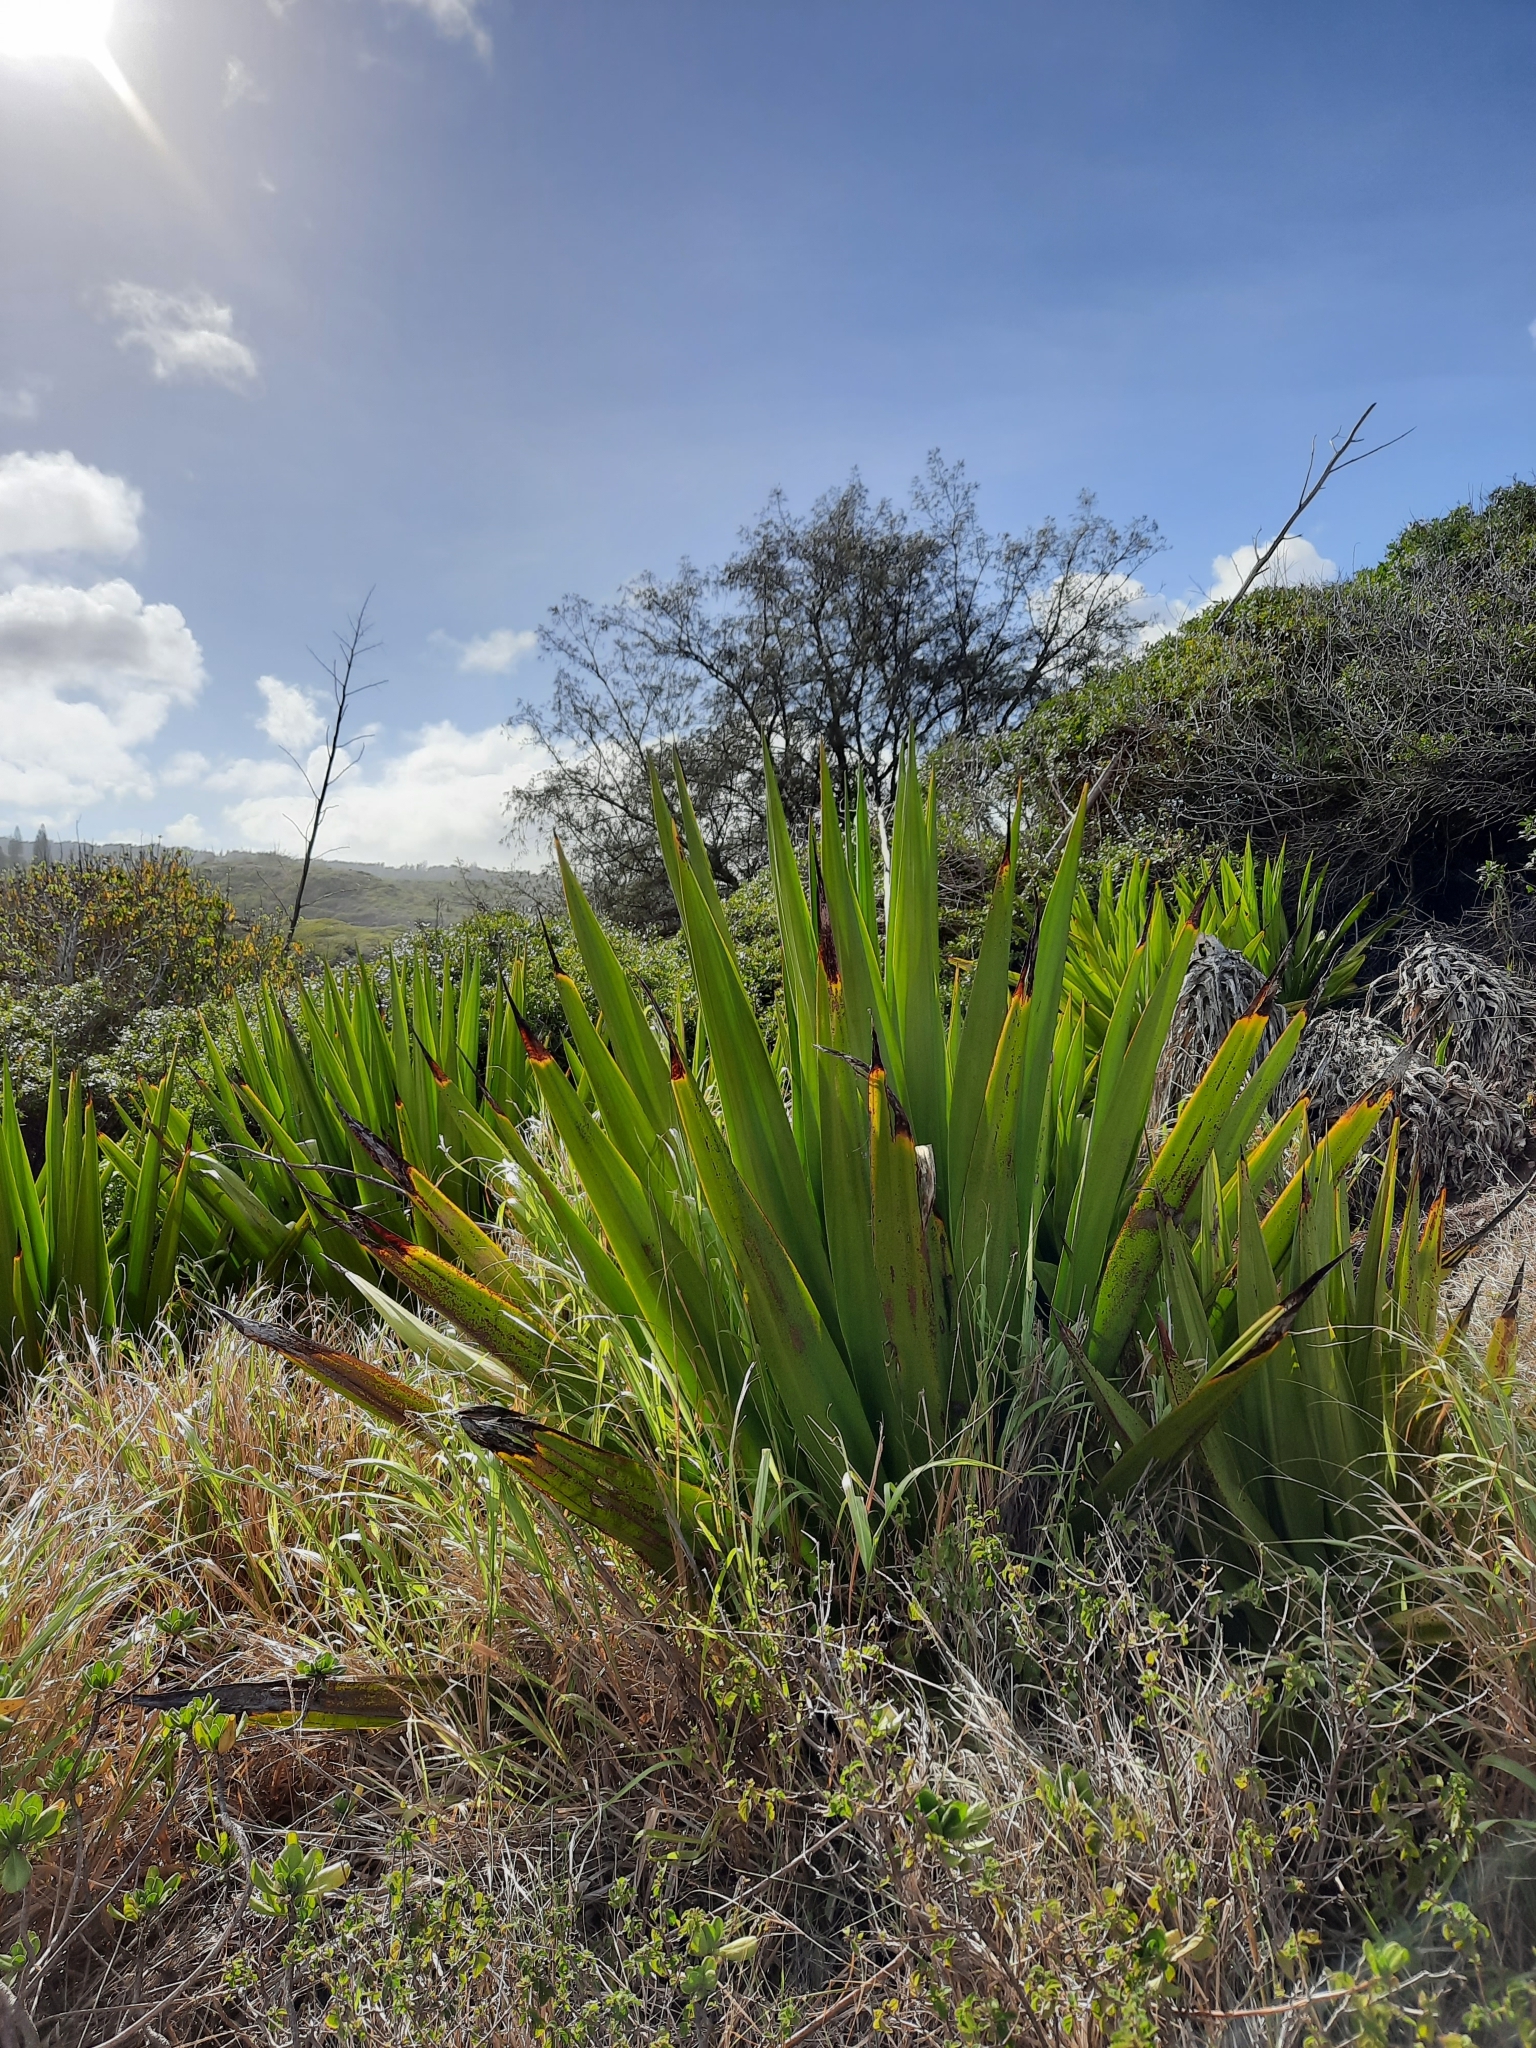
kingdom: Plantae
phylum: Tracheophyta
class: Liliopsida
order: Asparagales
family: Asparagaceae
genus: Furcraea
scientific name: Furcraea foetida
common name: Mauritius hemp
